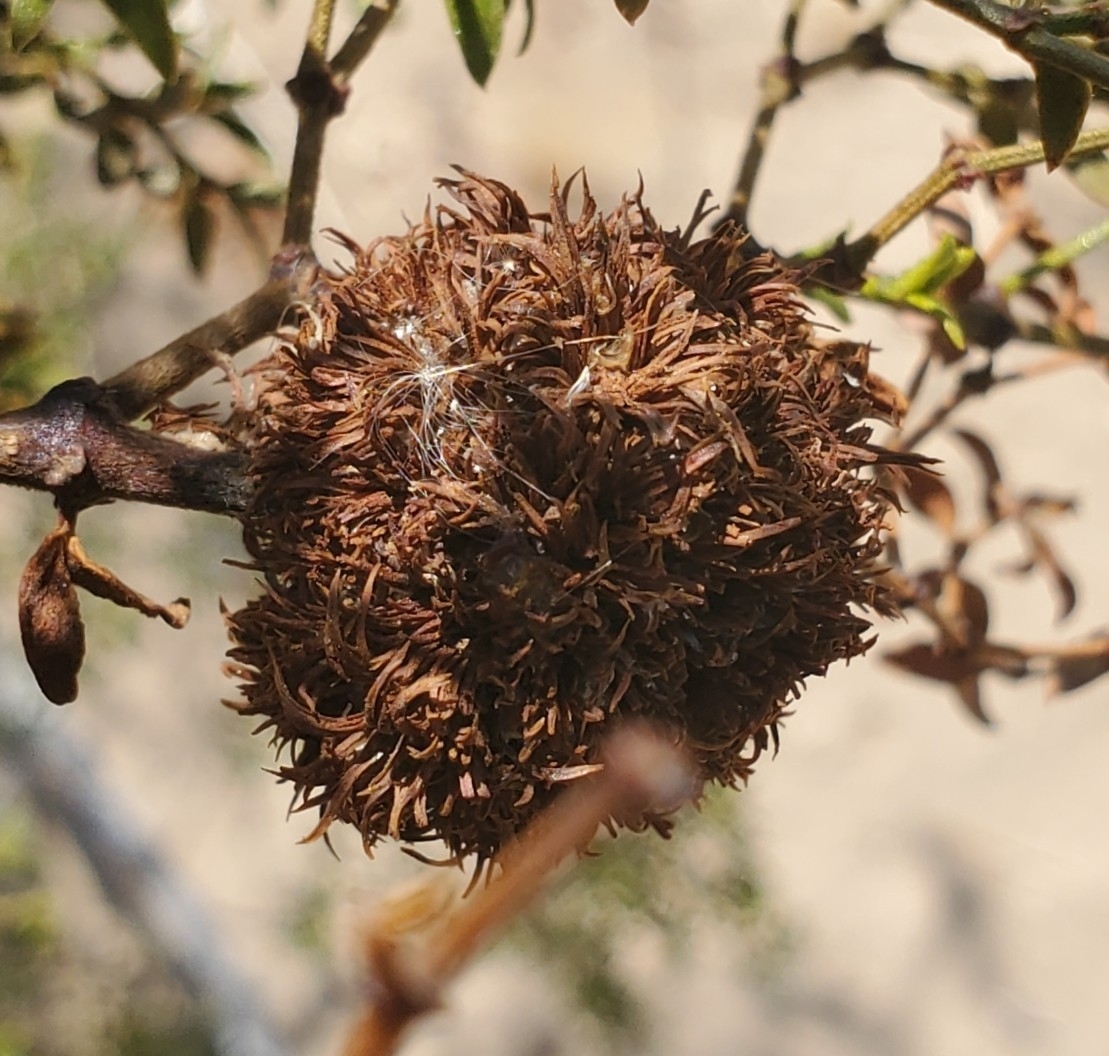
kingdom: Animalia
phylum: Arthropoda
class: Insecta
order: Diptera
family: Cecidomyiidae
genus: Asphondylia
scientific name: Asphondylia auripila
